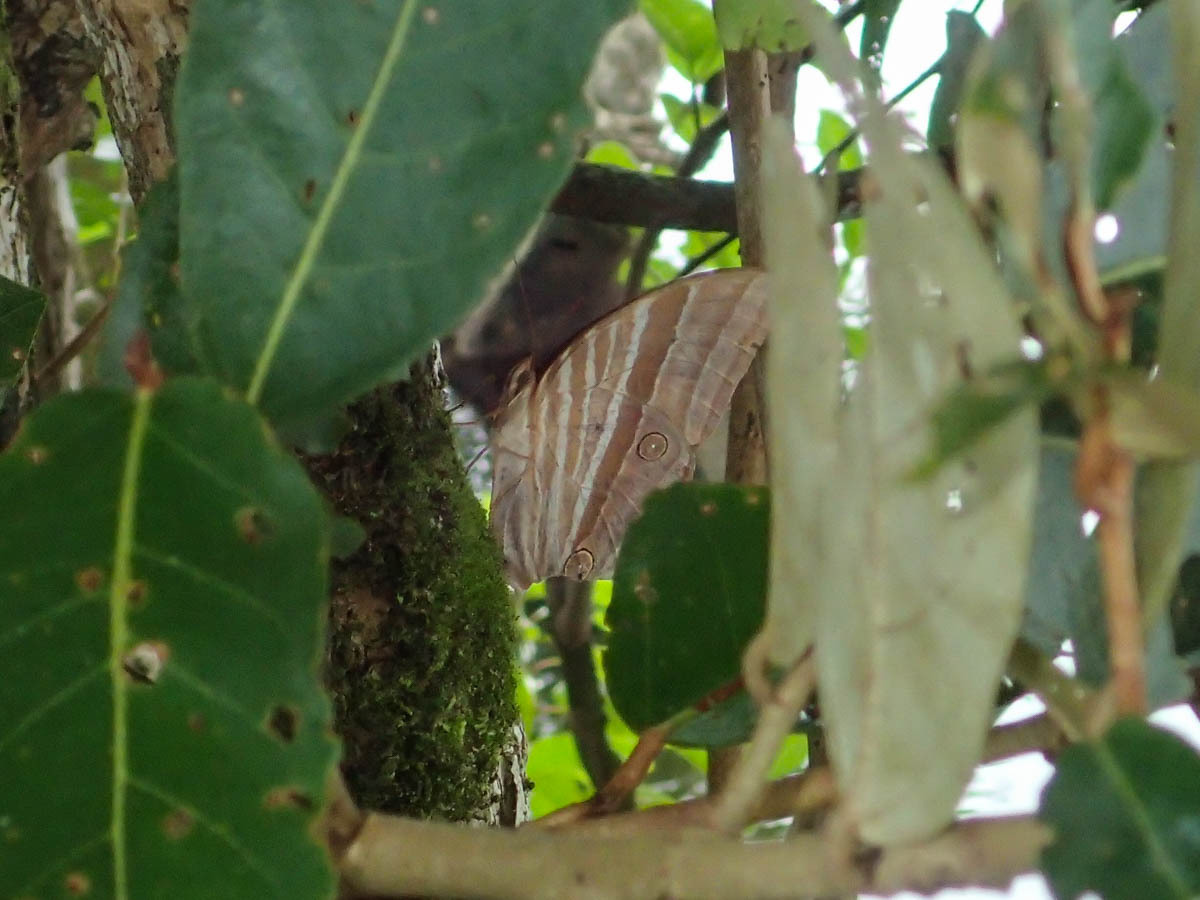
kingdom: Animalia
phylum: Arthropoda
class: Insecta
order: Lepidoptera
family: Nymphalidae
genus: Amathusia
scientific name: Amathusia phidippus
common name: Palm king
